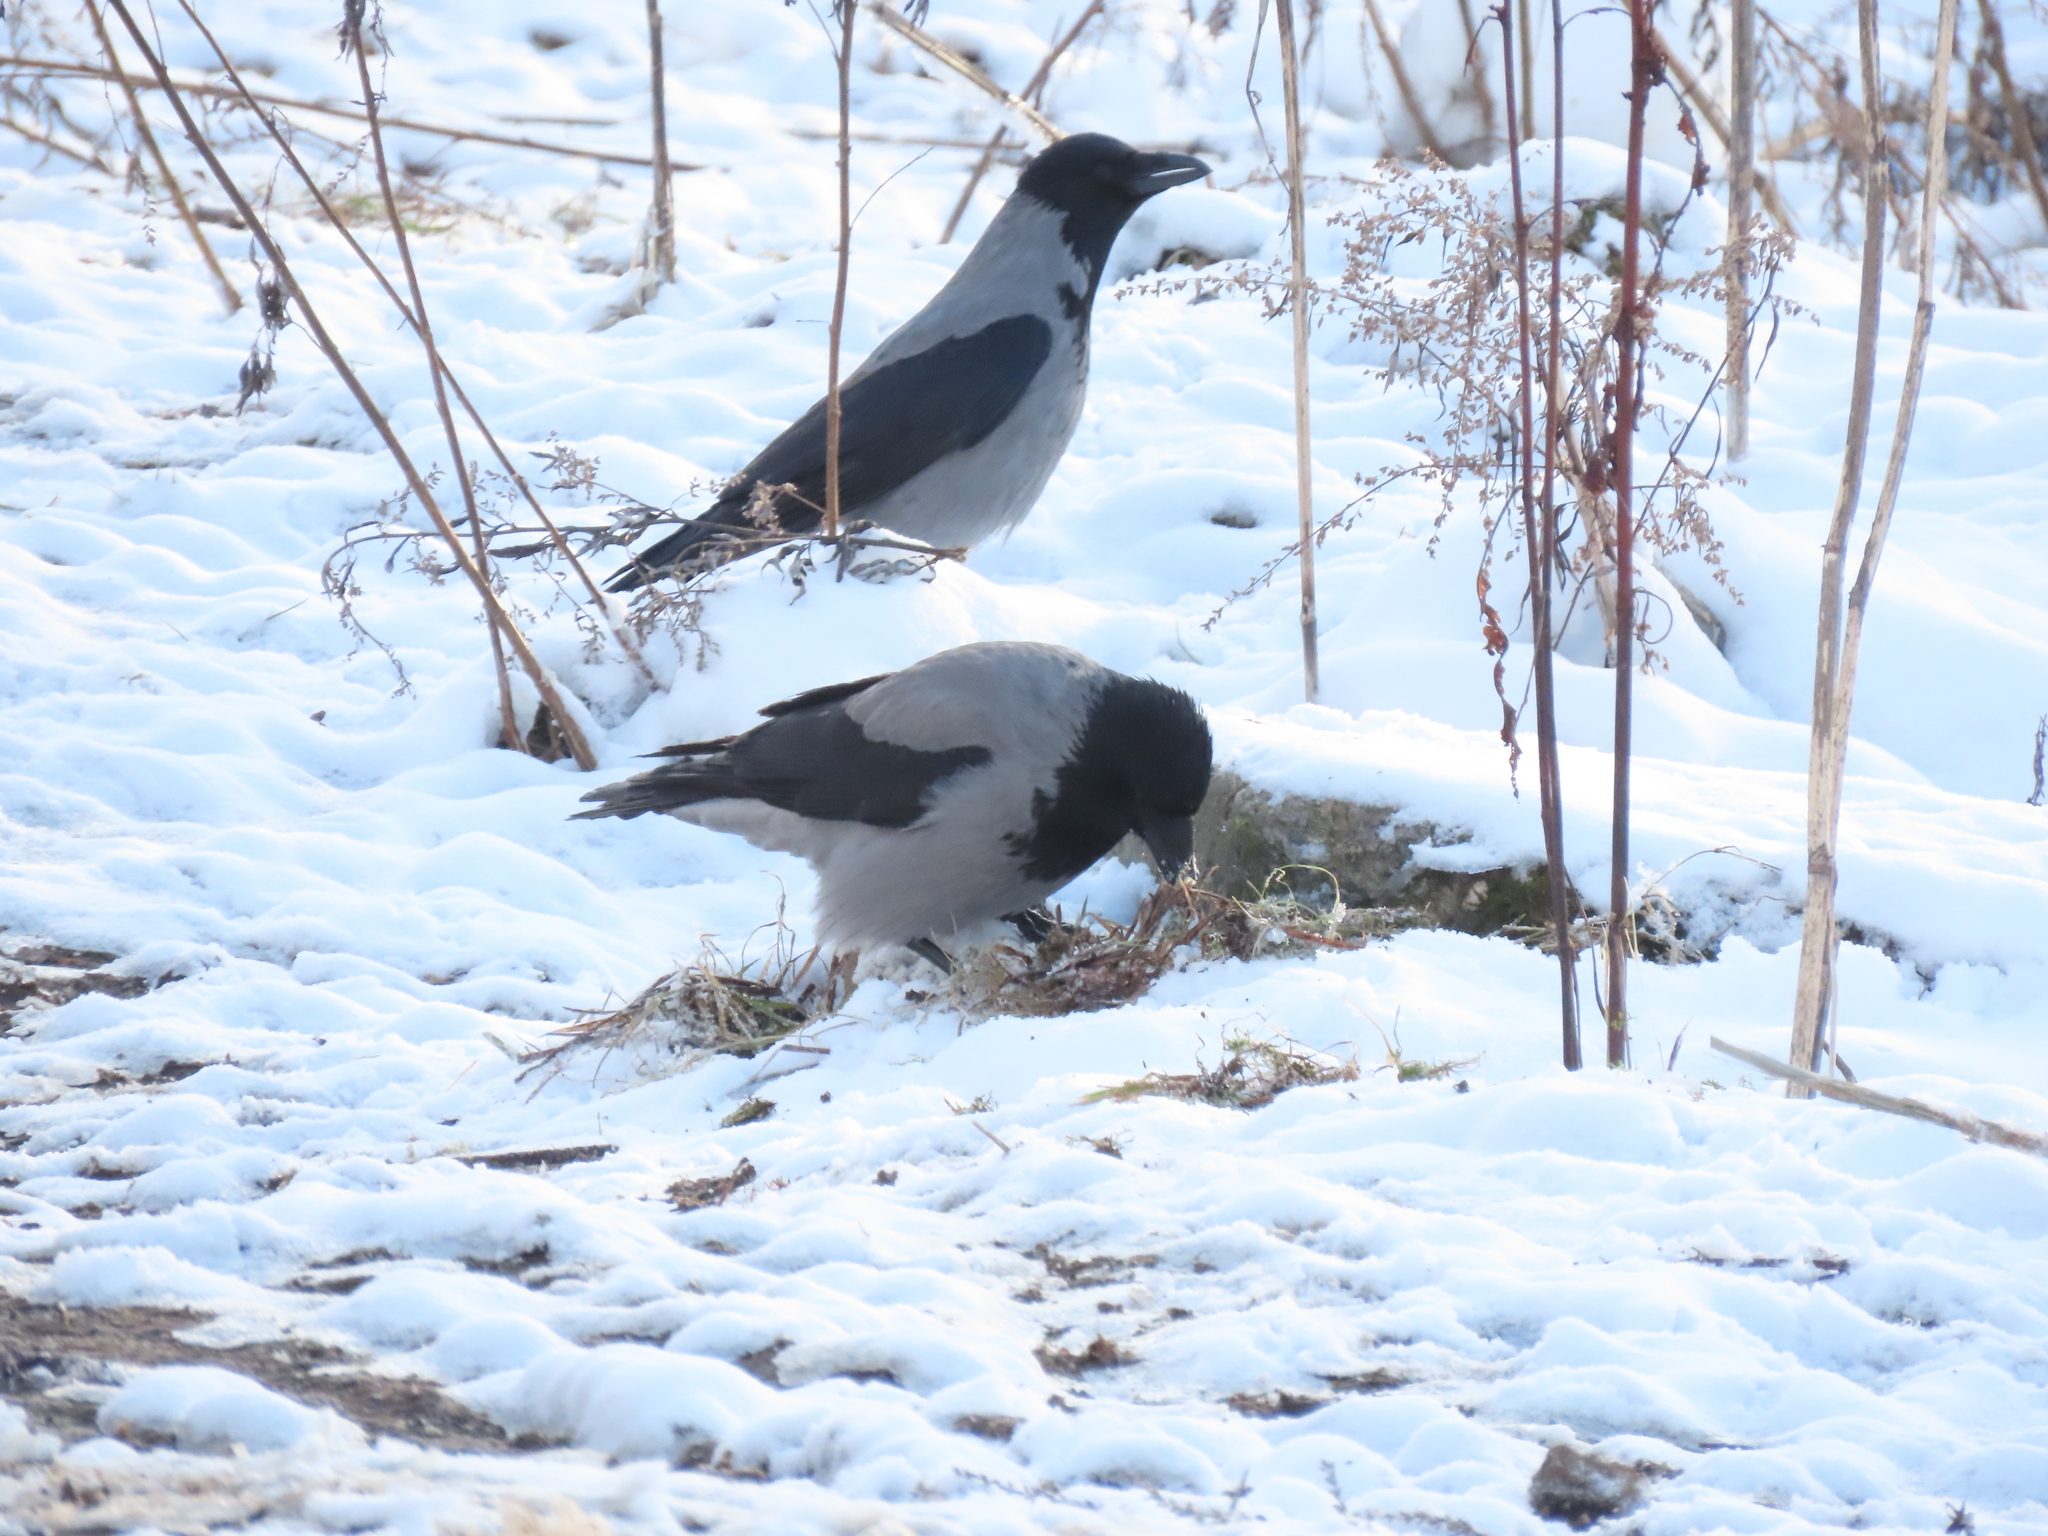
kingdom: Animalia
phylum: Chordata
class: Aves
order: Passeriformes
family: Corvidae
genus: Corvus
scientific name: Corvus cornix
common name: Hooded crow
